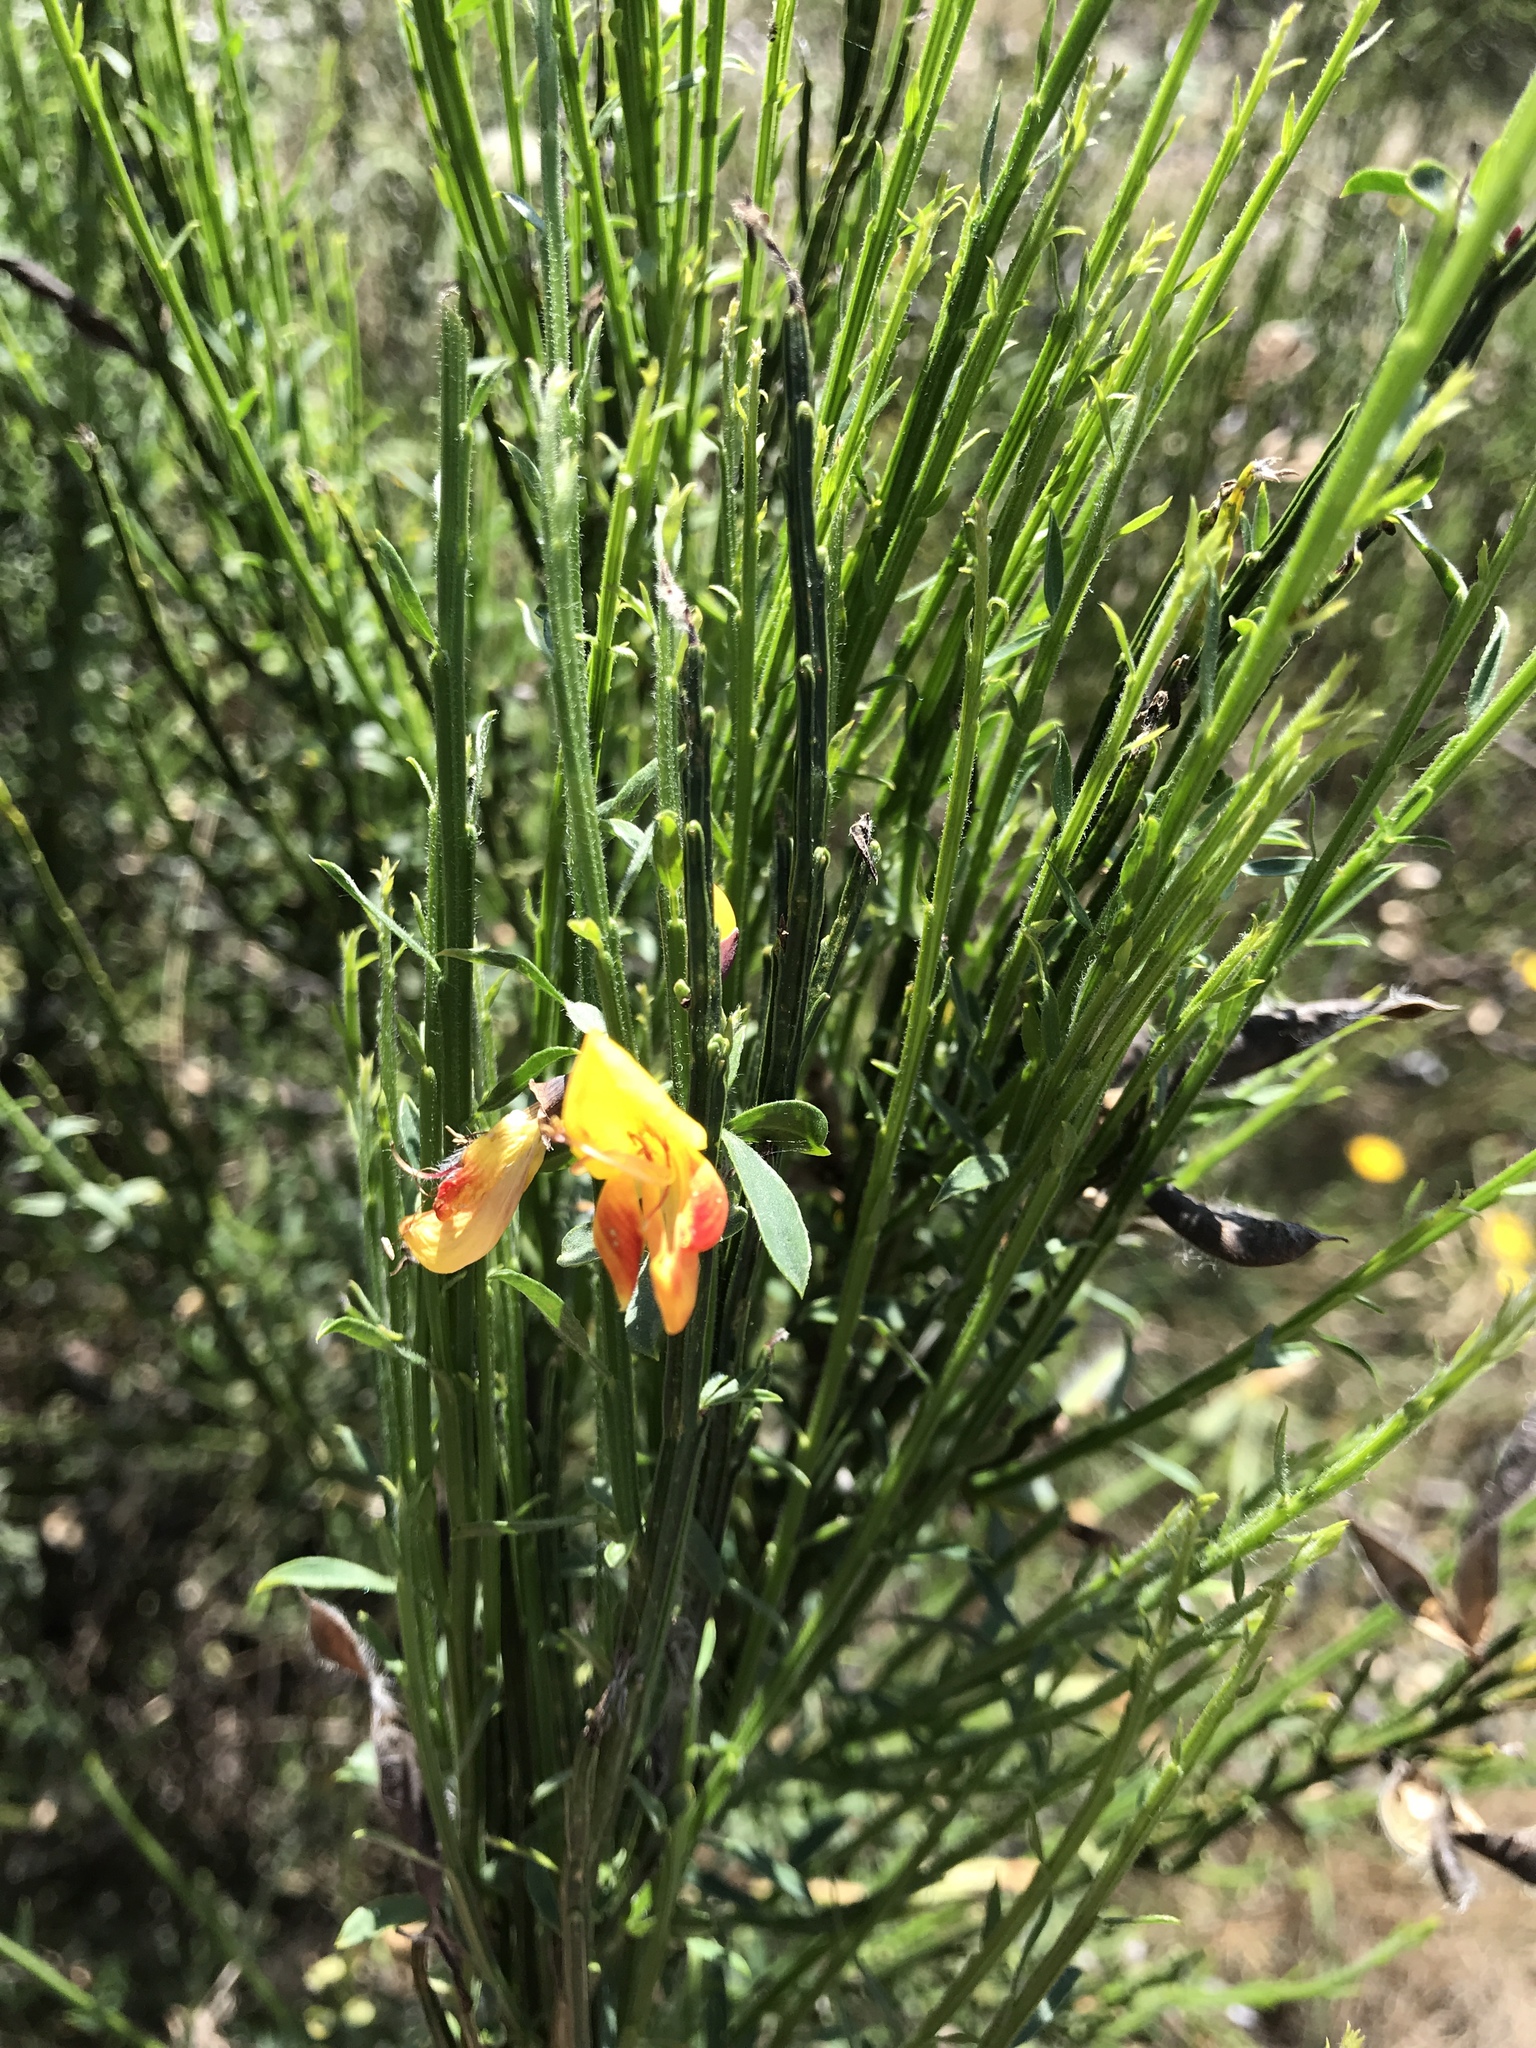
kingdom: Plantae
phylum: Tracheophyta
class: Magnoliopsida
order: Fabales
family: Fabaceae
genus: Cytisus
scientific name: Cytisus scoparius
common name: Scotch broom
